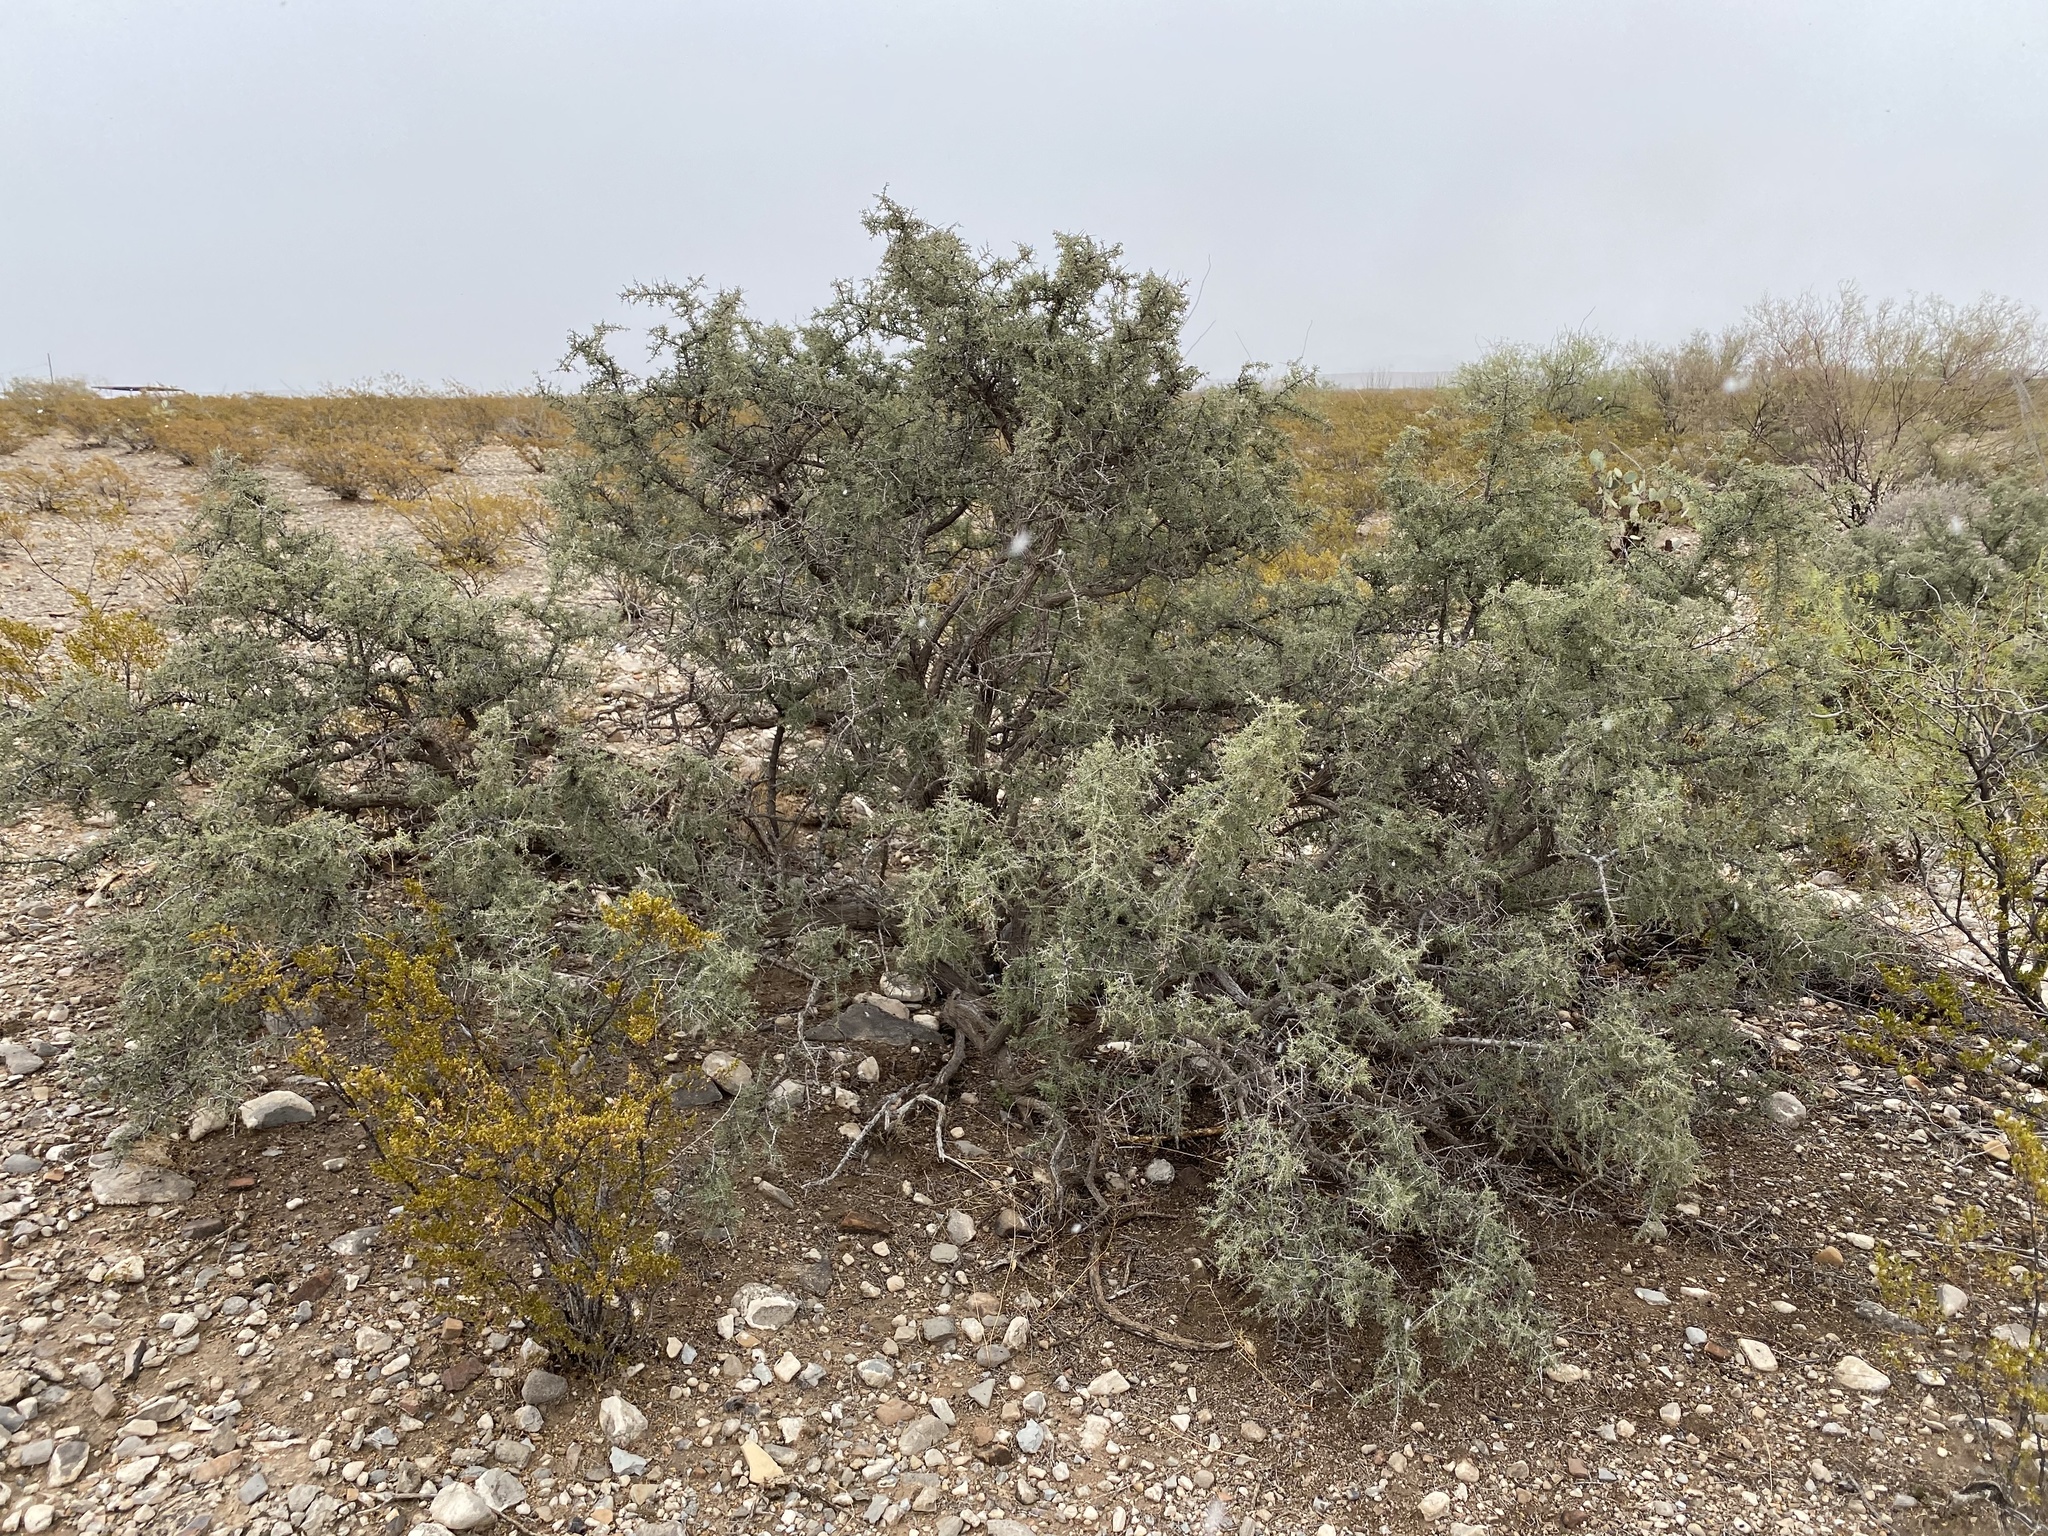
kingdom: Plantae
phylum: Tracheophyta
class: Magnoliopsida
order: Rosales
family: Rhamnaceae
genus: Condalia
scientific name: Condalia warnockii
